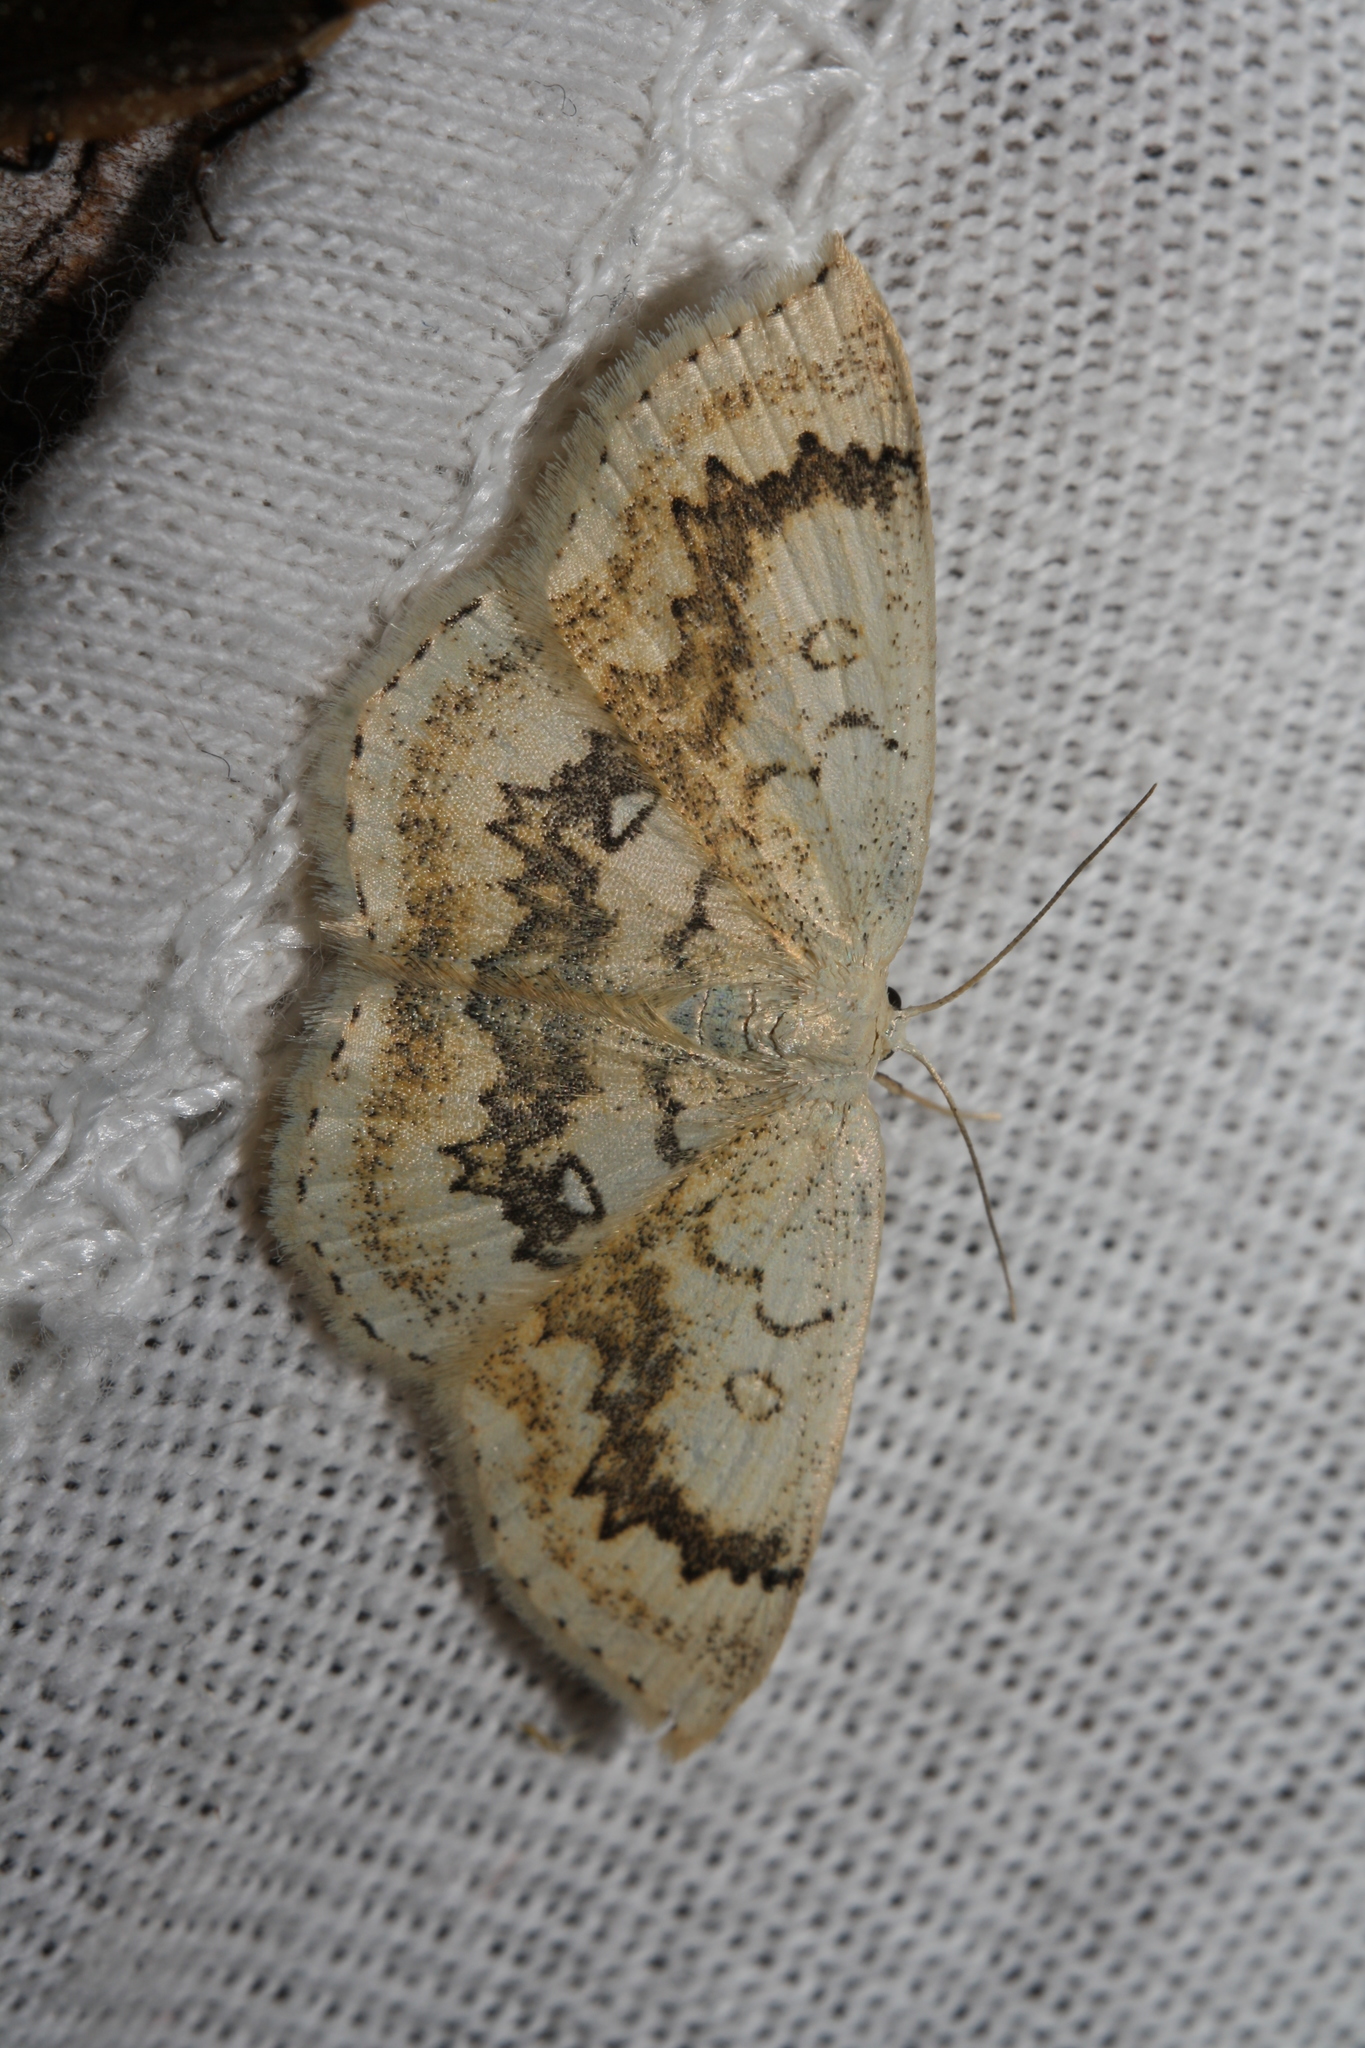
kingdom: Animalia
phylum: Arthropoda
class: Insecta
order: Lepidoptera
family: Geometridae
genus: Cyclophora
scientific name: Cyclophora annularia
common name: Mocha
